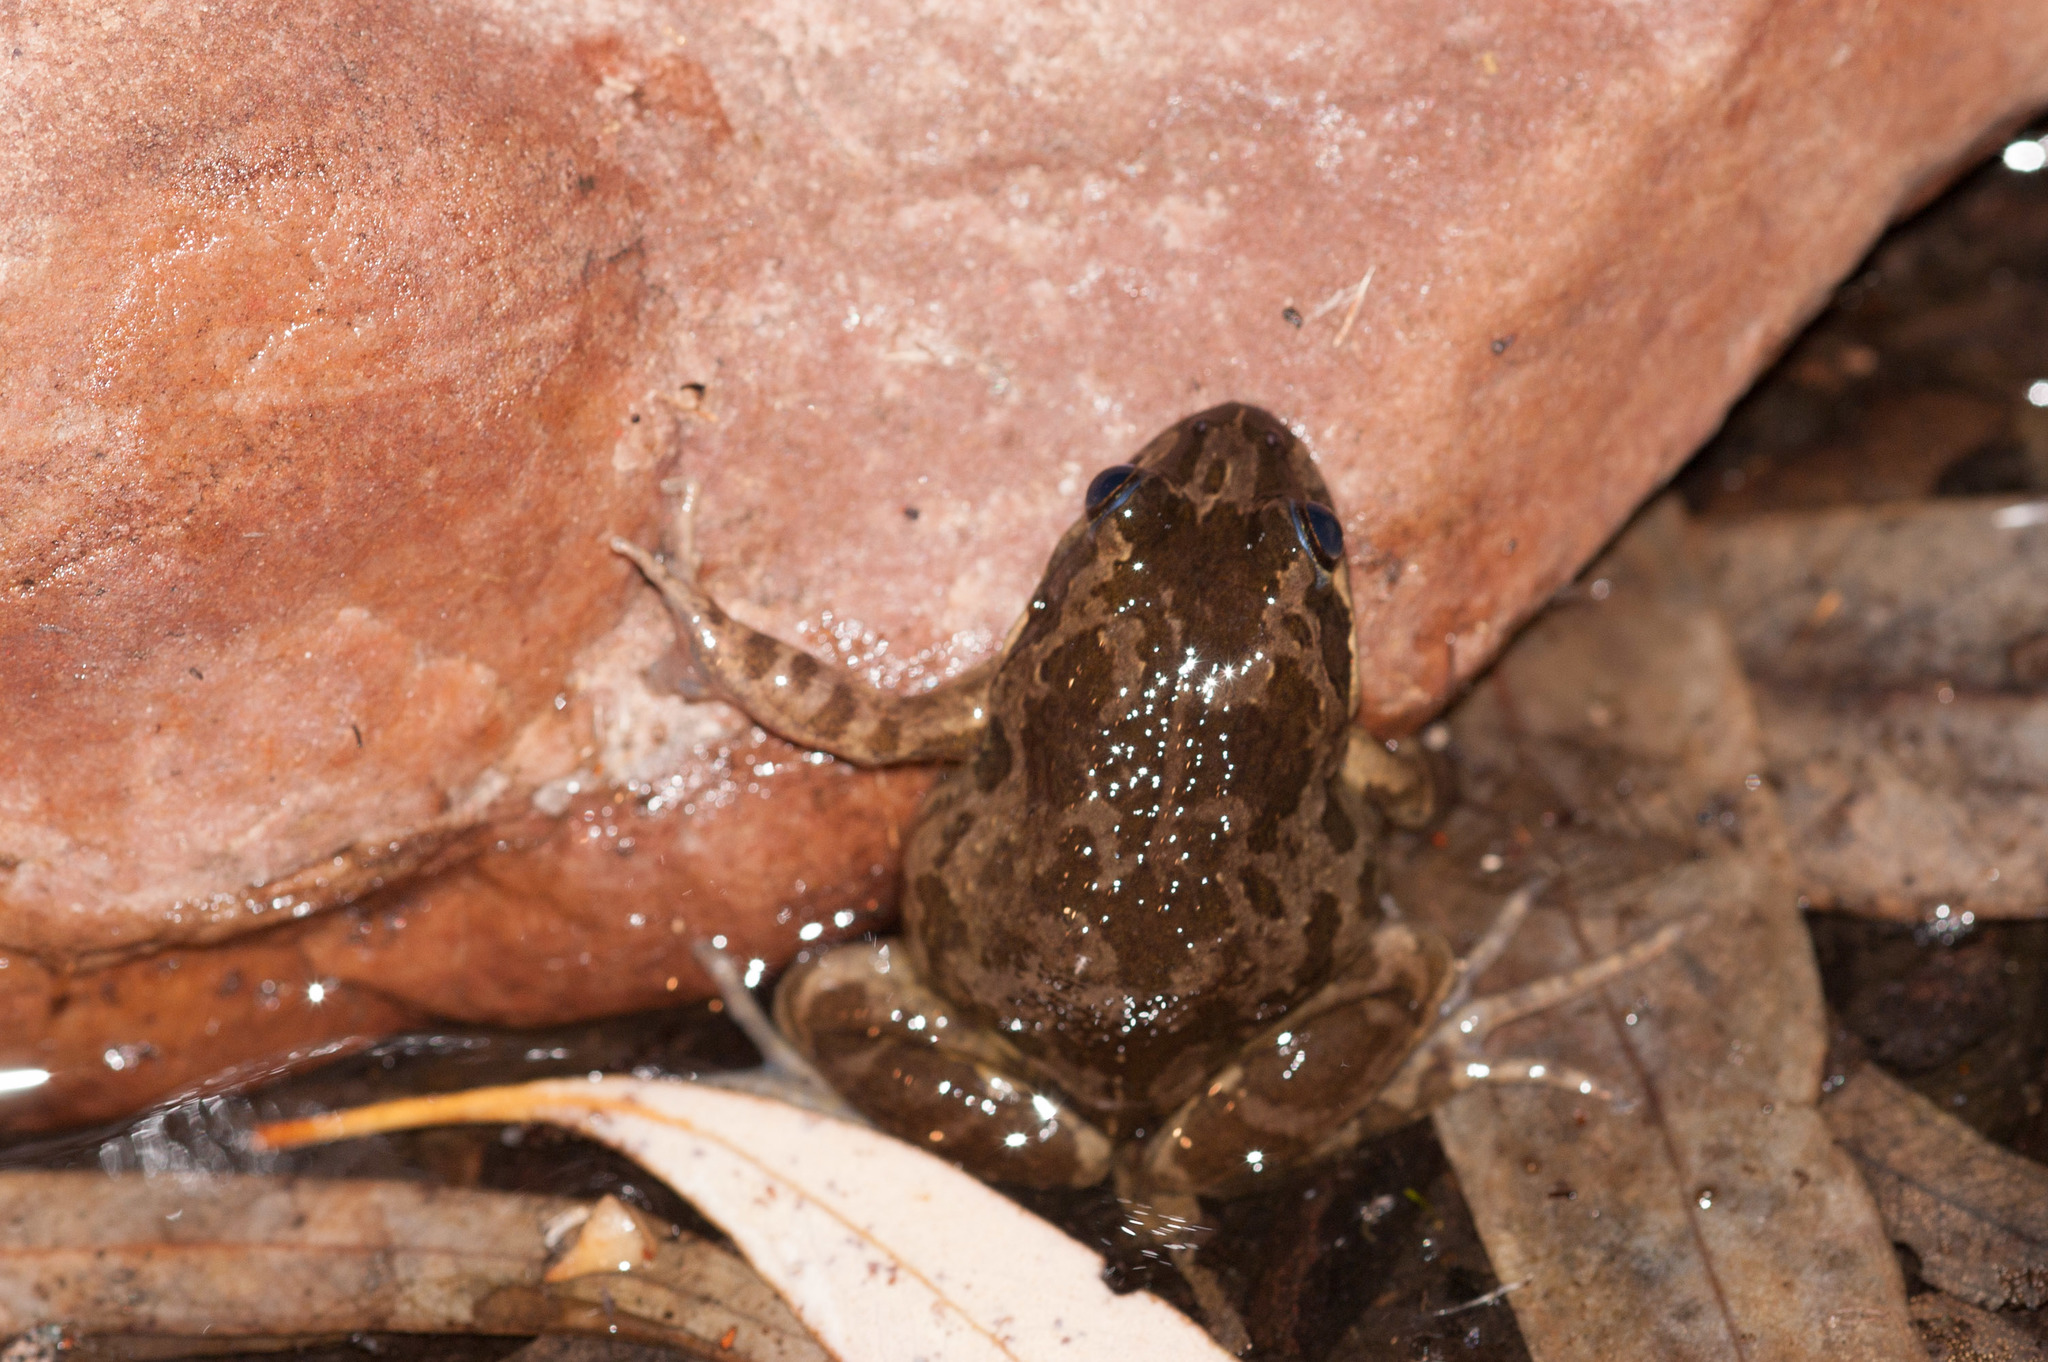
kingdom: Animalia
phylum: Chordata
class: Amphibia
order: Anura
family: Limnodynastidae
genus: Limnodynastes
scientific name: Limnodynastes tasmaniensis
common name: Spotted marsh frog
